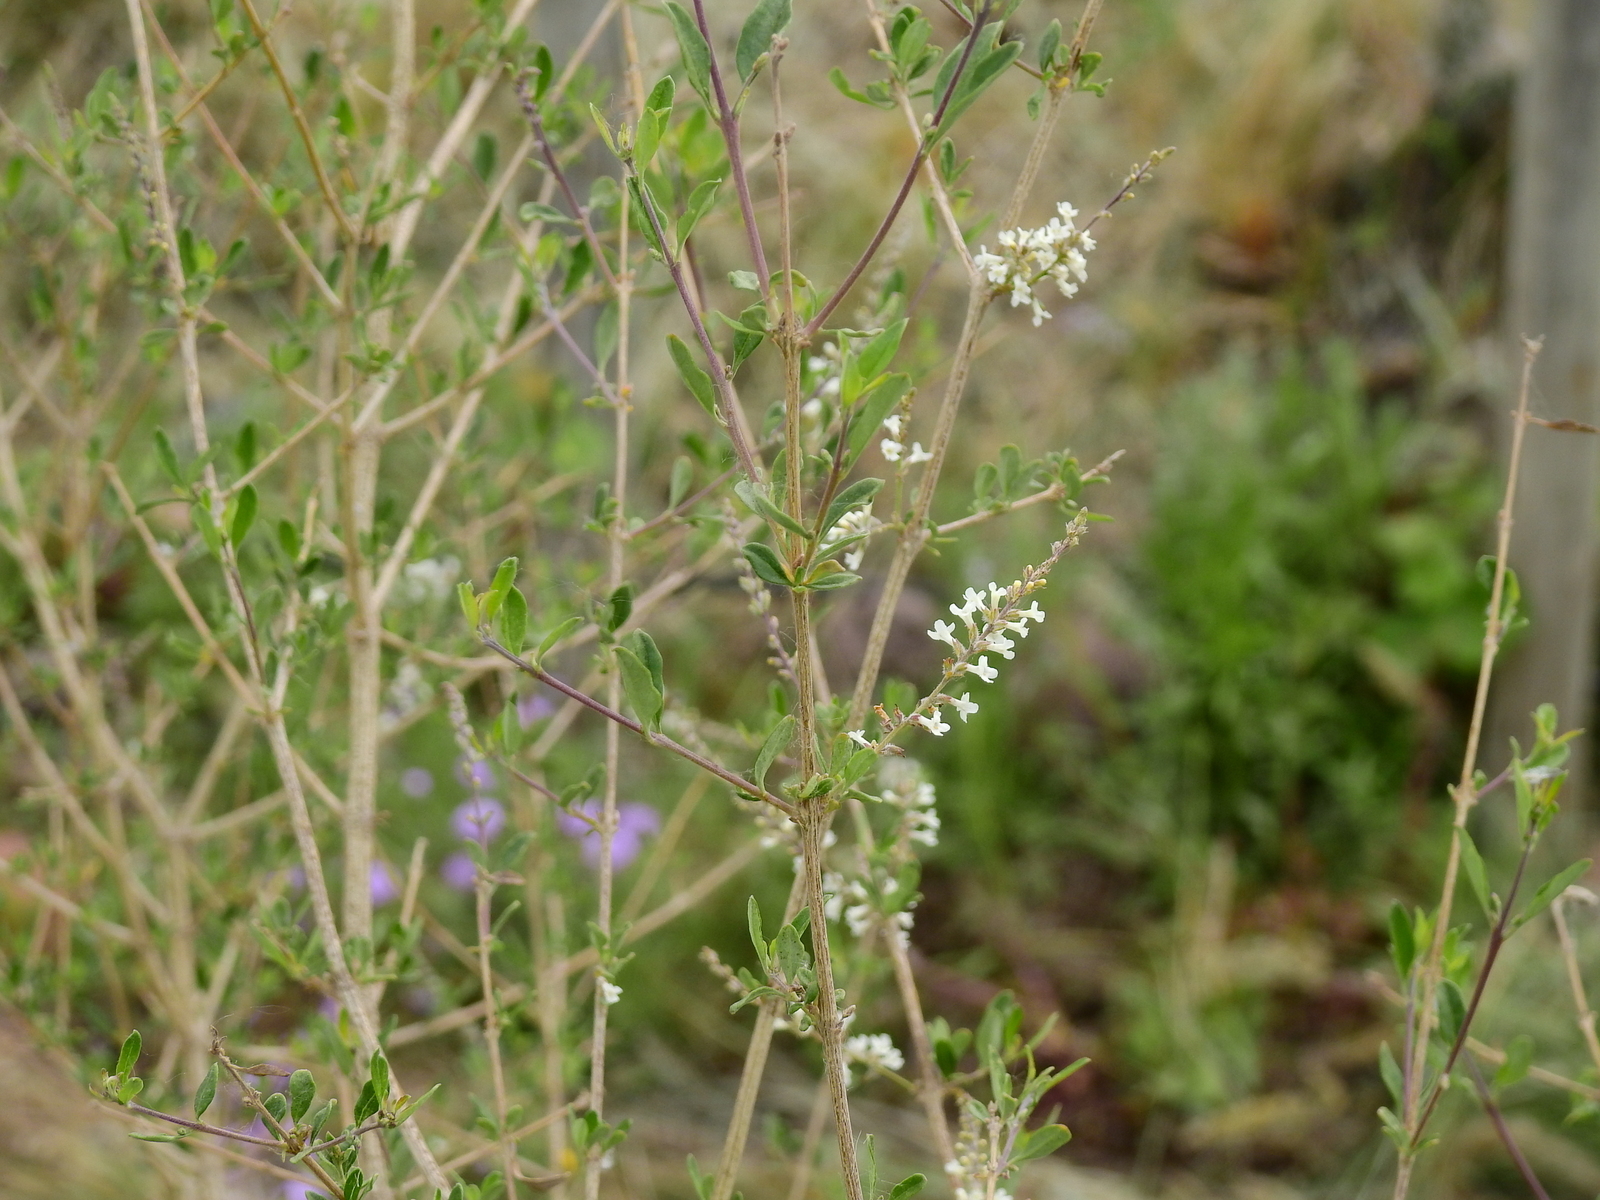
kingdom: Plantae
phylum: Tracheophyta
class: Magnoliopsida
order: Lamiales
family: Verbenaceae
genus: Aloysia
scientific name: Aloysia gratissima
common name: Common bee-brush
